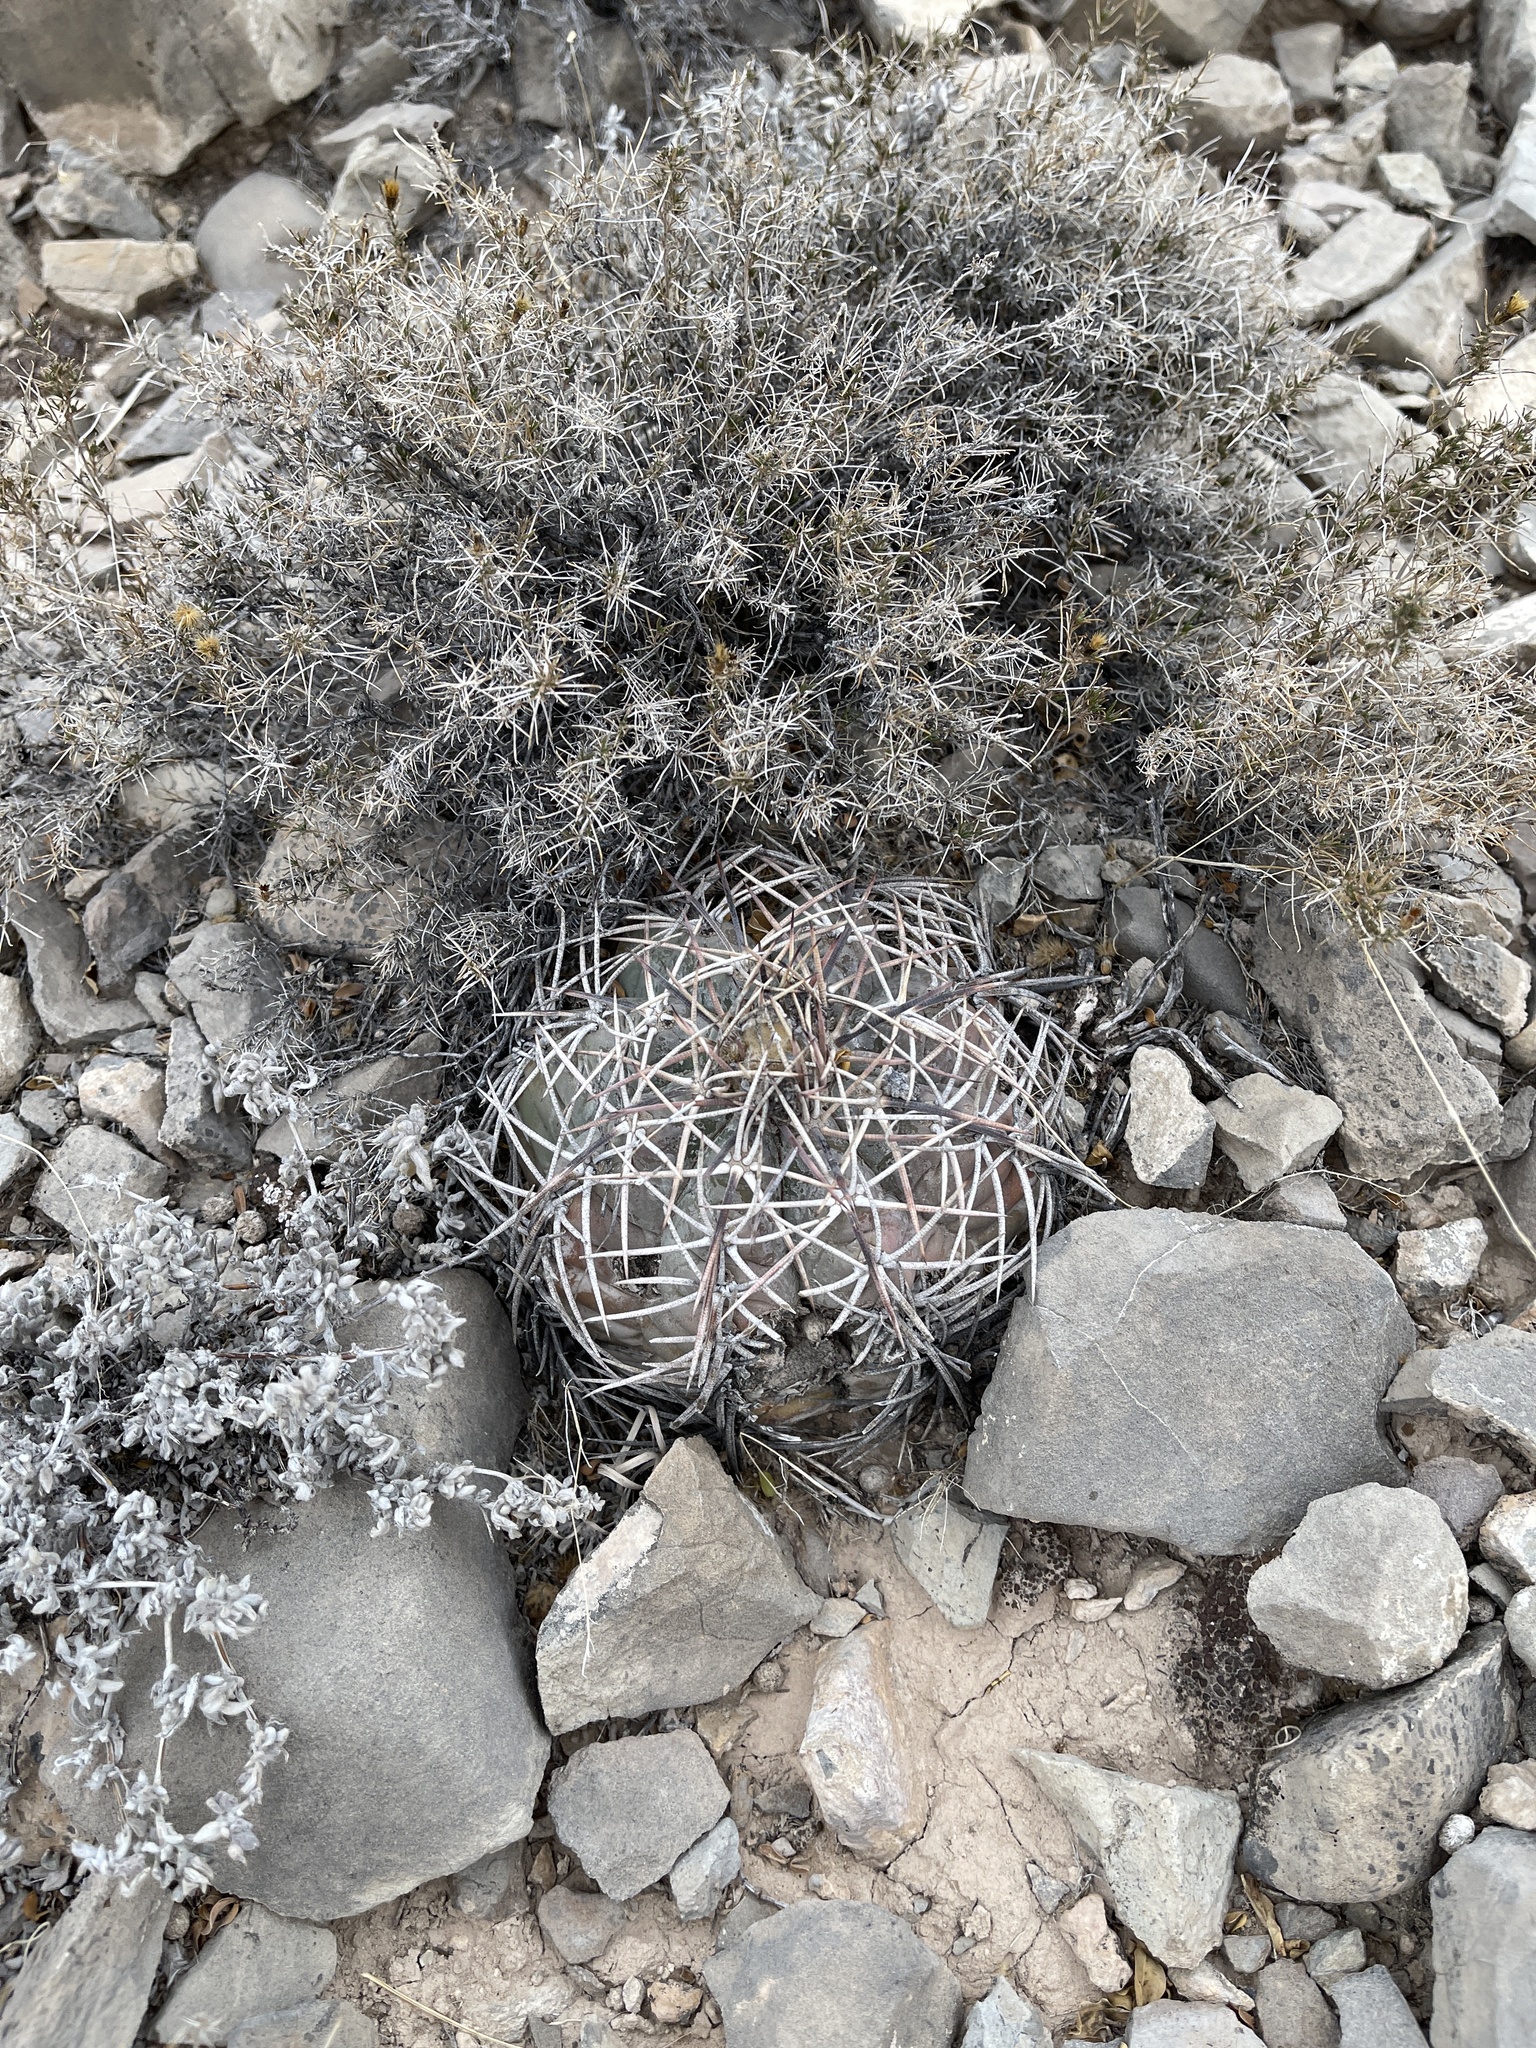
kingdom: Plantae
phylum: Tracheophyta
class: Magnoliopsida
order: Caryophyllales
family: Cactaceae
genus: Echinocactus
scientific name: Echinocactus horizonthalonius
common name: Devilshead
